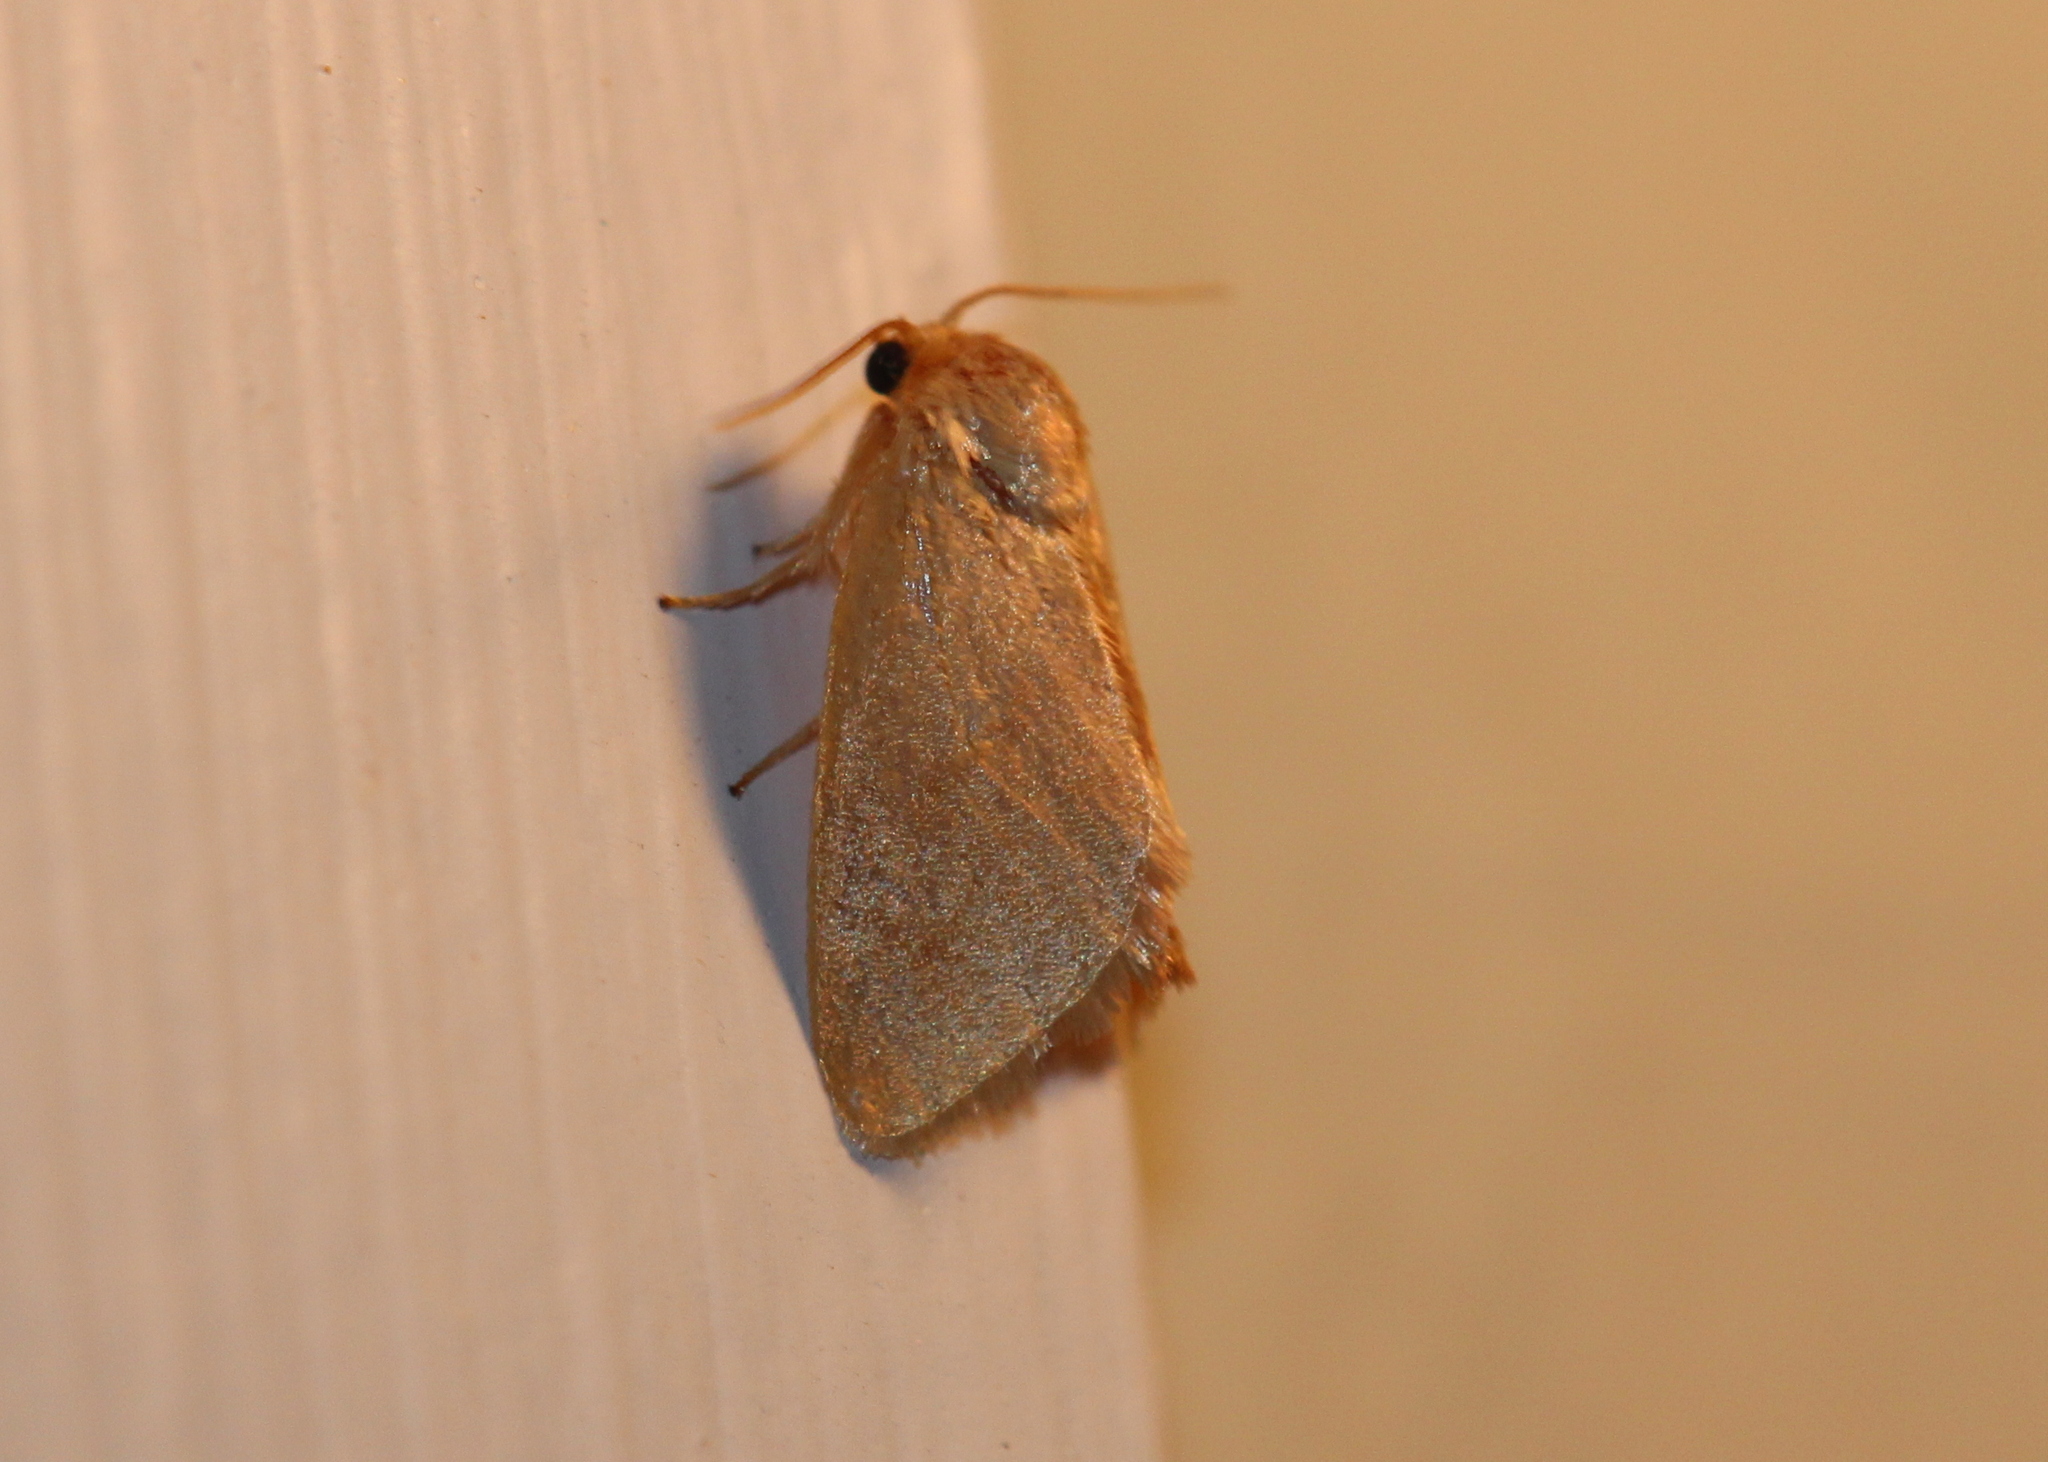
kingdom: Animalia
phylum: Arthropoda
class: Insecta
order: Lepidoptera
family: Limacodidae
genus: Tortricidia
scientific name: Tortricidia pallida
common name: Red-crossed button slug moth
